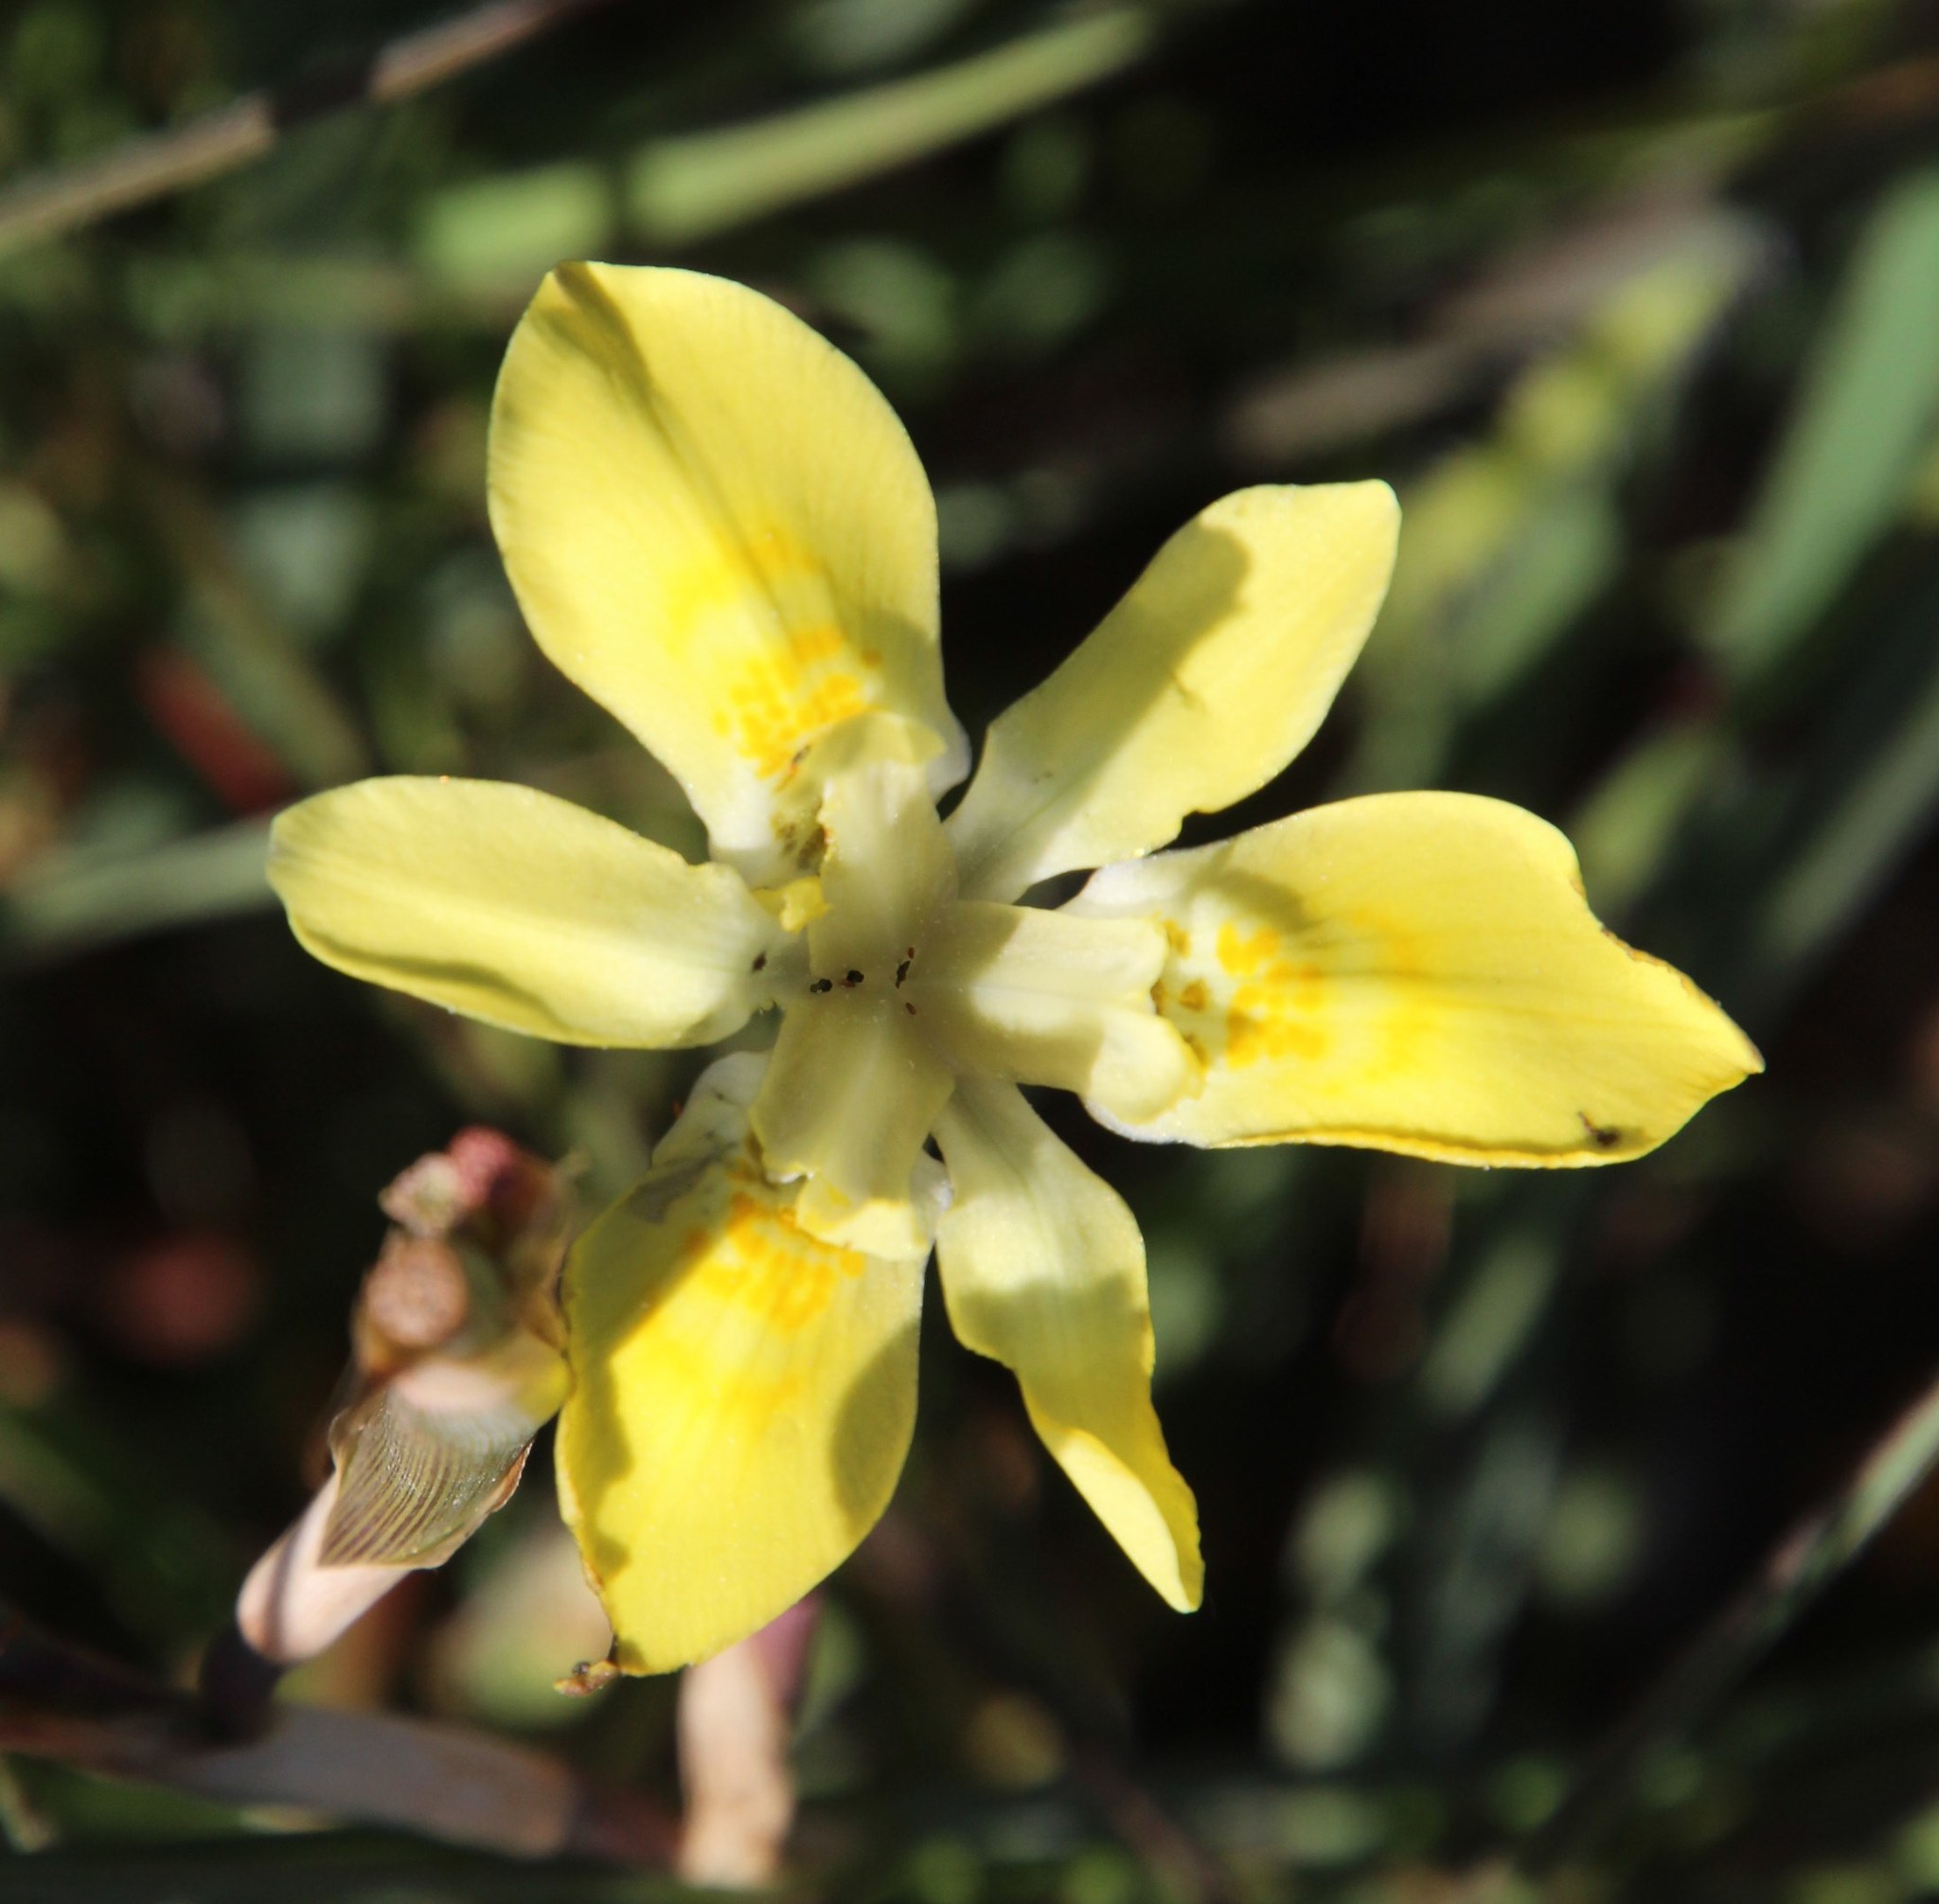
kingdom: Plantae
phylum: Tracheophyta
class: Liliopsida
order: Asparagales
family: Iridaceae
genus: Moraea
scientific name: Moraea fugax
